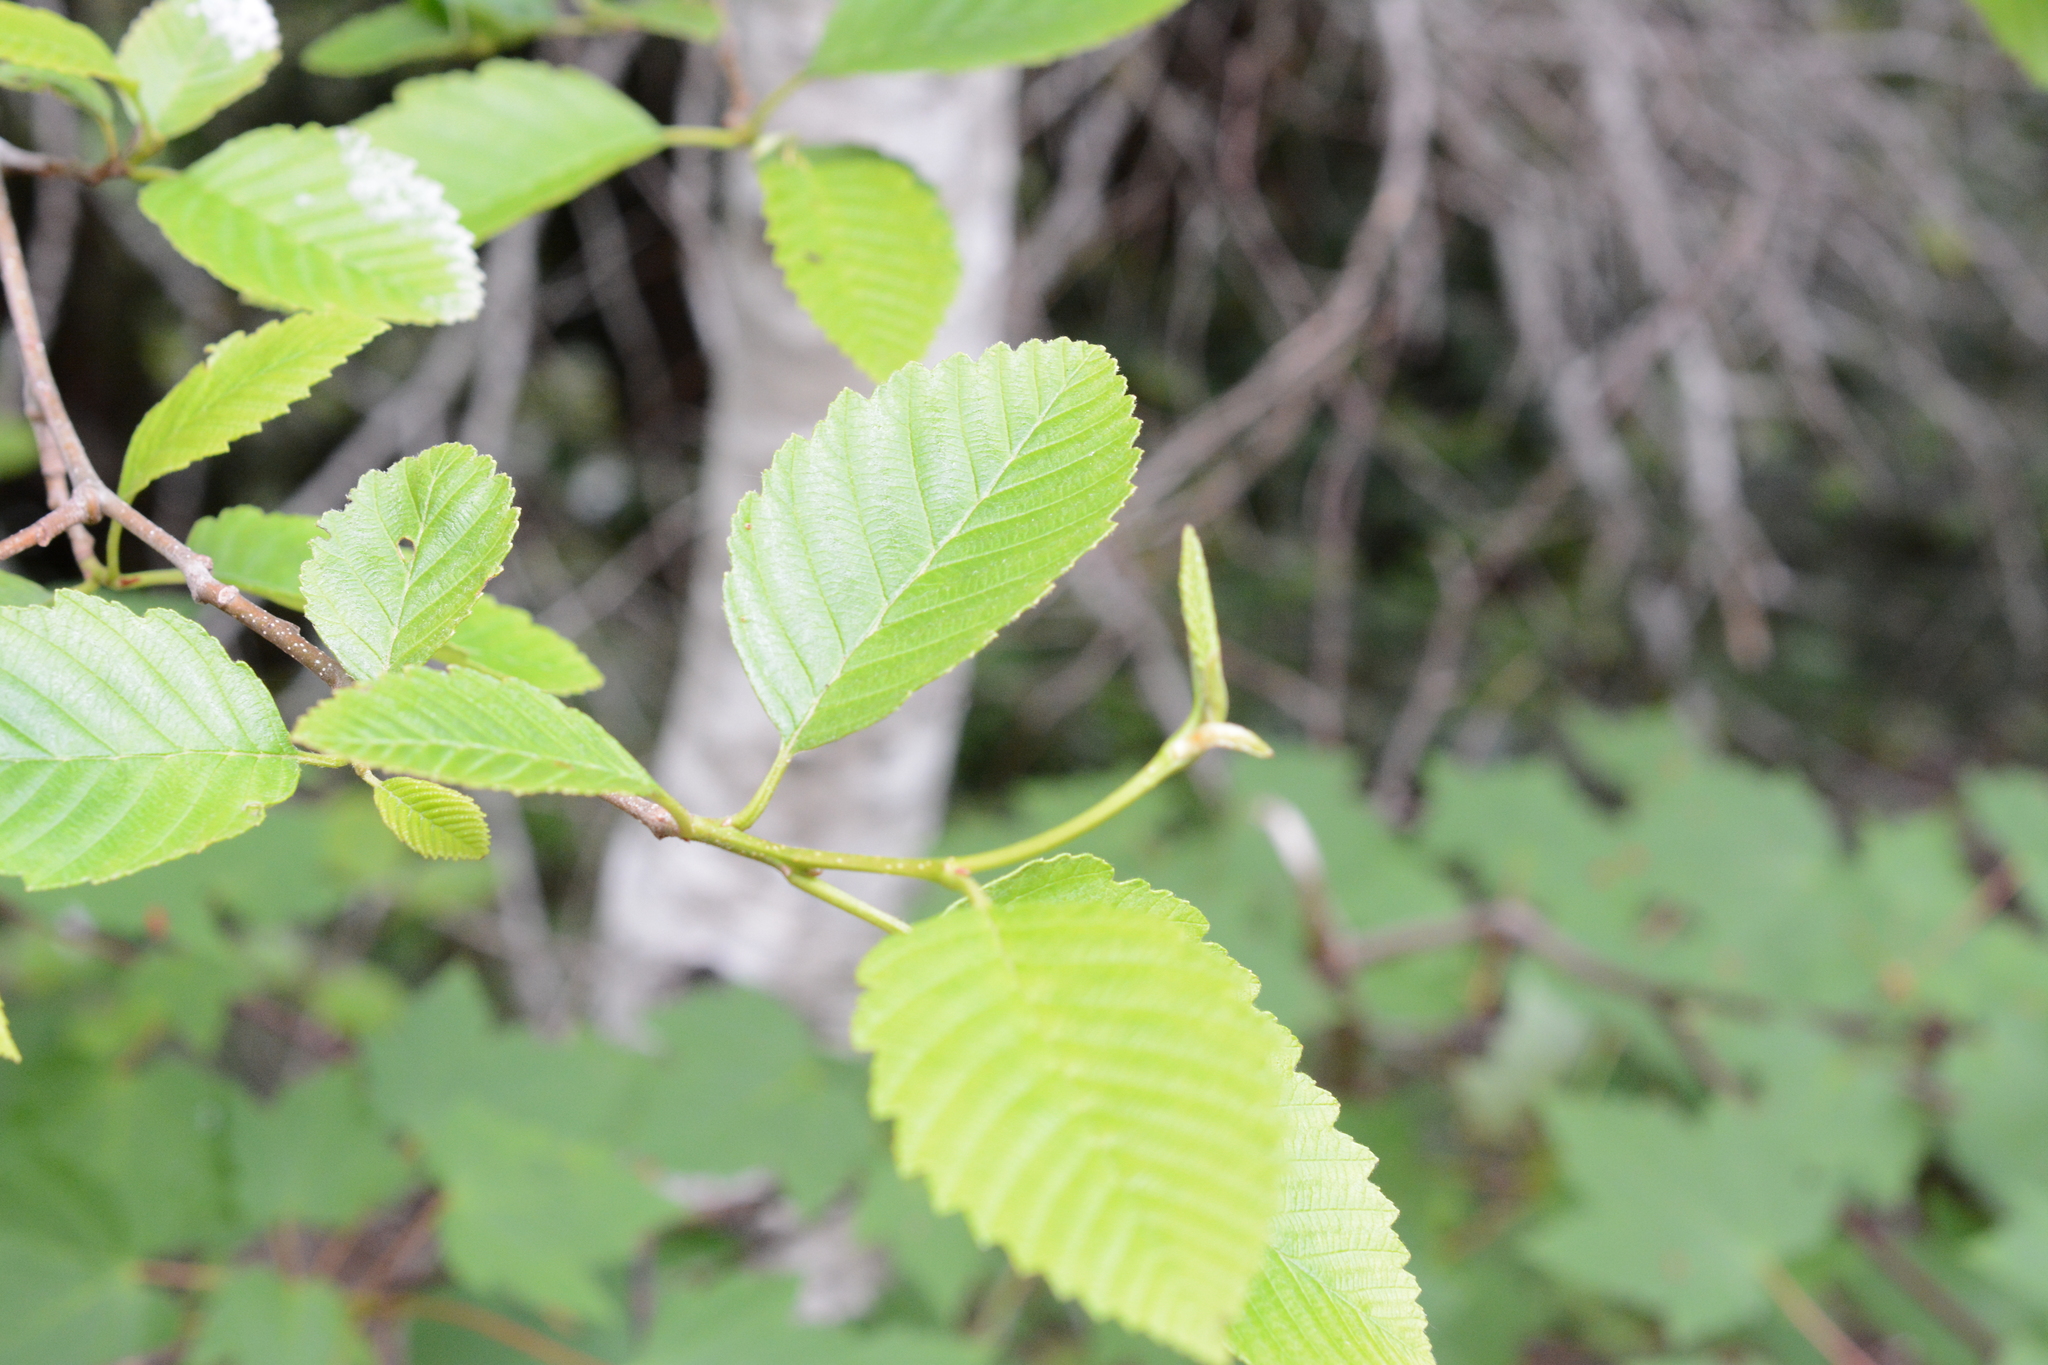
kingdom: Plantae
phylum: Tracheophyta
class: Magnoliopsida
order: Fagales
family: Betulaceae
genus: Alnus
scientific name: Alnus rubra
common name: Red alder
